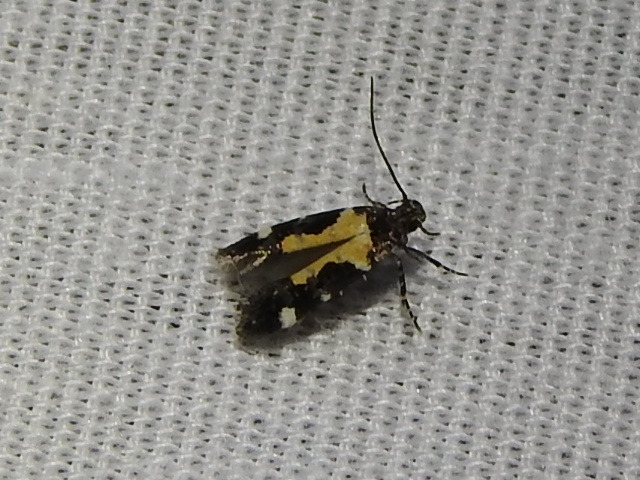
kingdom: Animalia
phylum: Arthropoda
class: Insecta
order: Lepidoptera
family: Gelechiidae
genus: Stegasta
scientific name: Stegasta bosqueella
